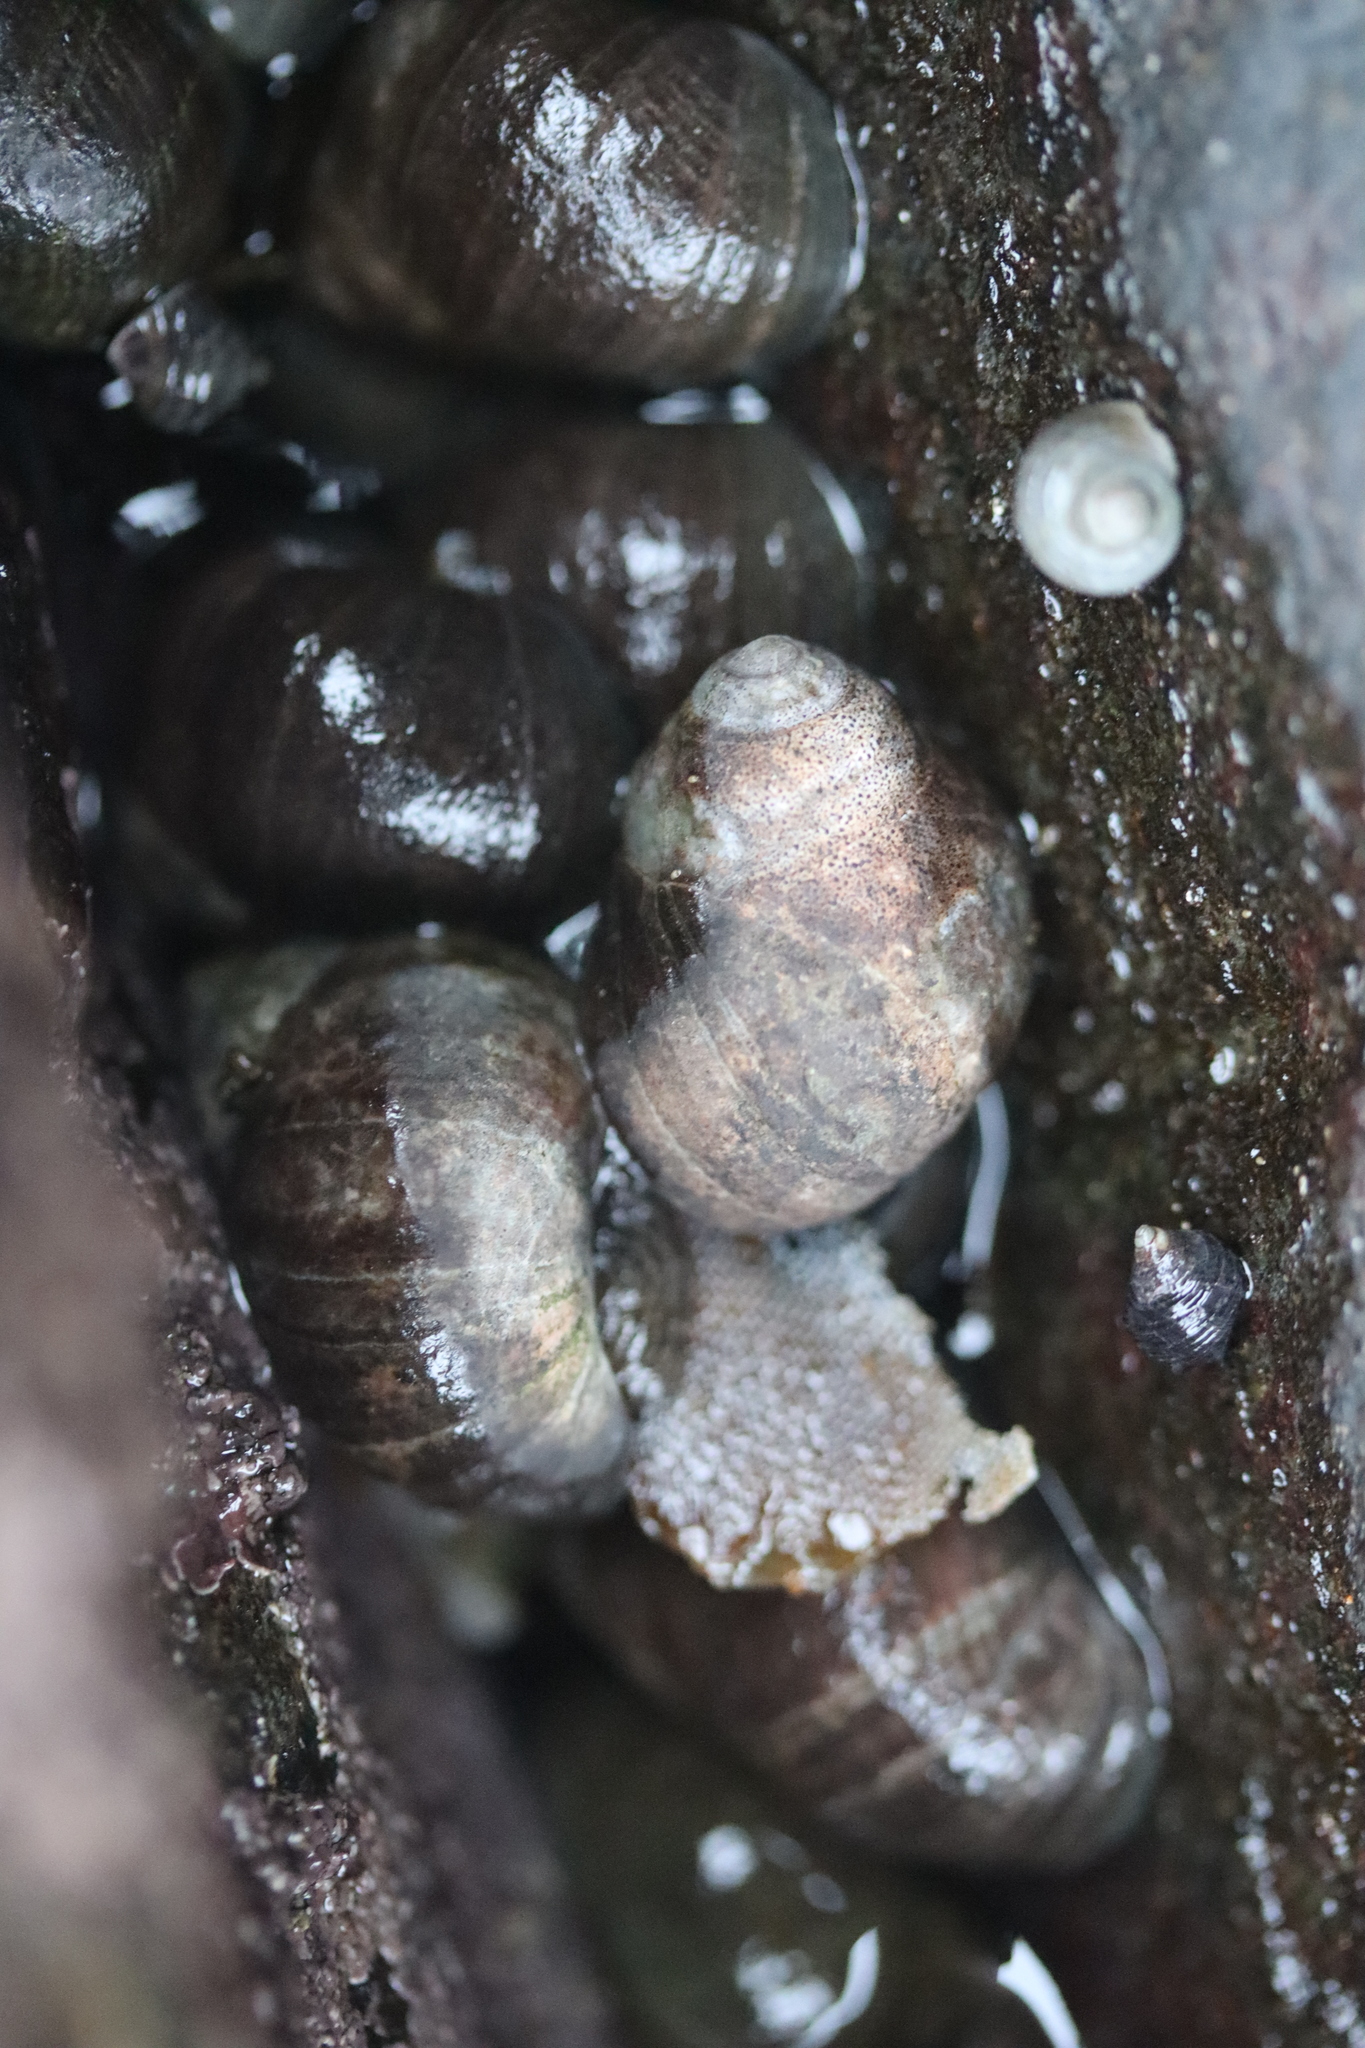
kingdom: Animalia
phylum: Mollusca
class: Gastropoda
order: Littorinimorpha
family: Littorinidae
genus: Littorina
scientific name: Littorina littorea
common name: Common periwinkle
